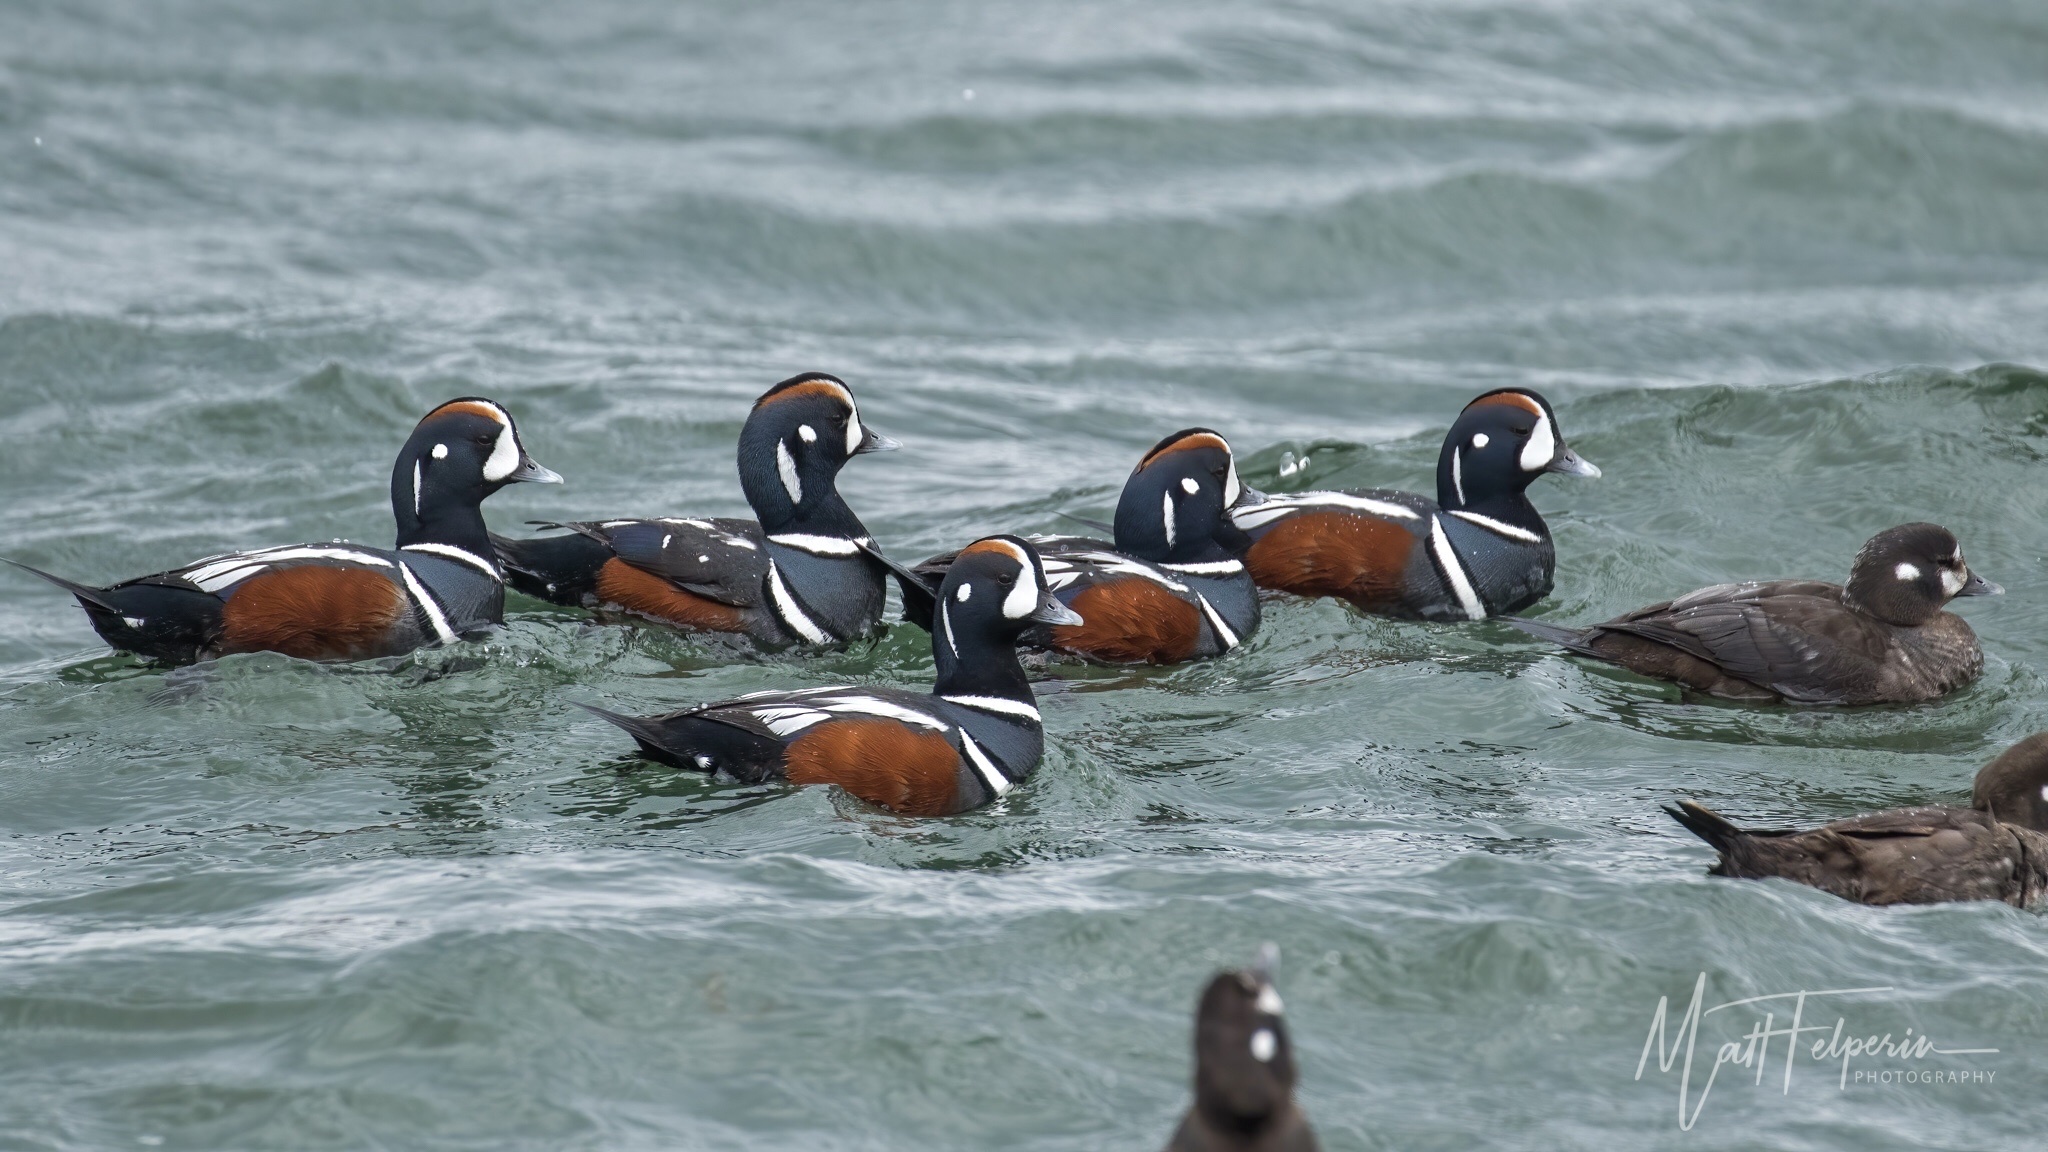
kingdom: Animalia
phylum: Chordata
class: Aves
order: Anseriformes
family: Anatidae
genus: Histrionicus
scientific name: Histrionicus histrionicus
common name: Harlequin duck
